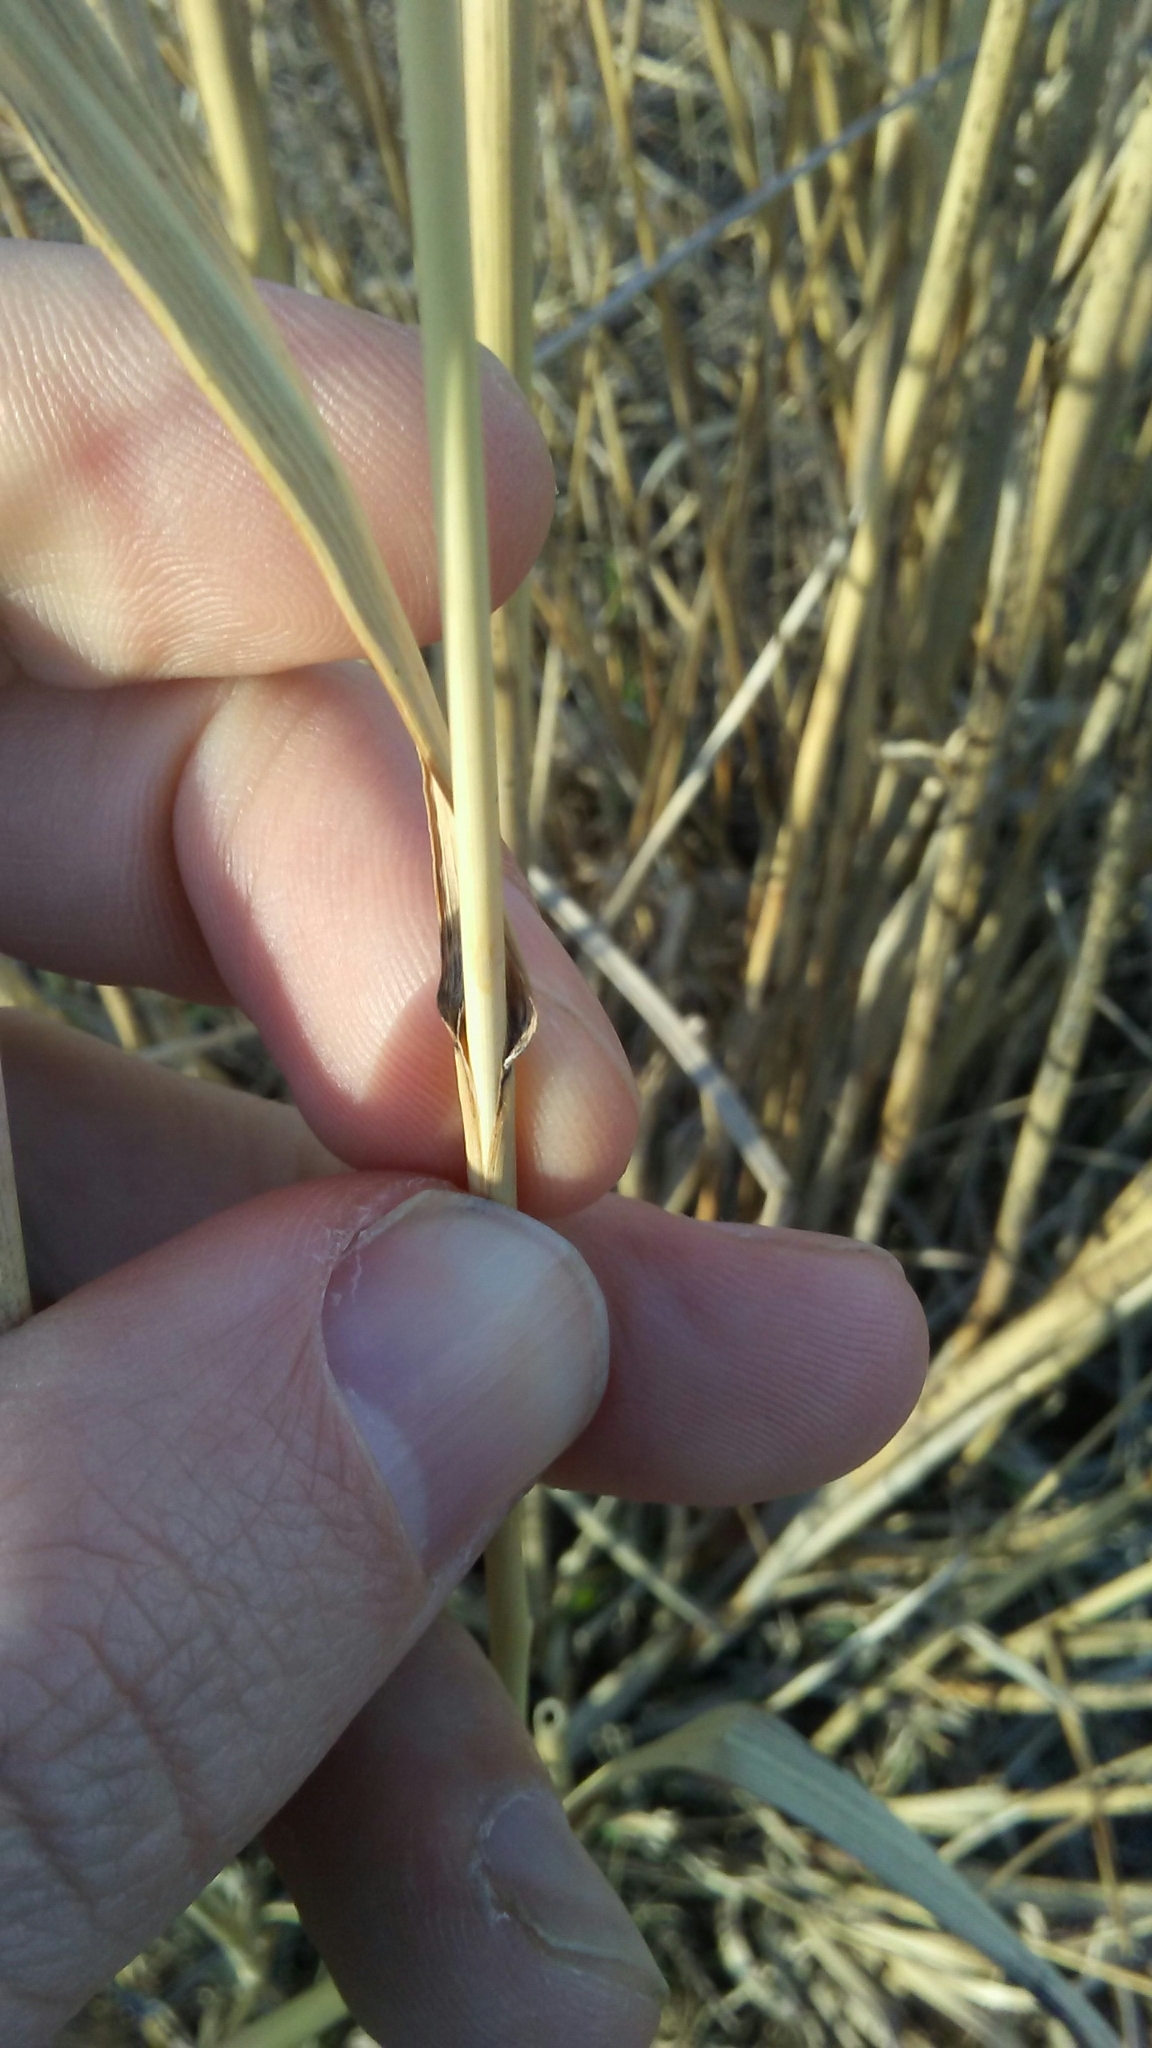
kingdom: Plantae
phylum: Tracheophyta
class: Liliopsida
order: Poales
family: Poaceae
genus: Panicum
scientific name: Panicum virgatum
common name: Switchgrass
